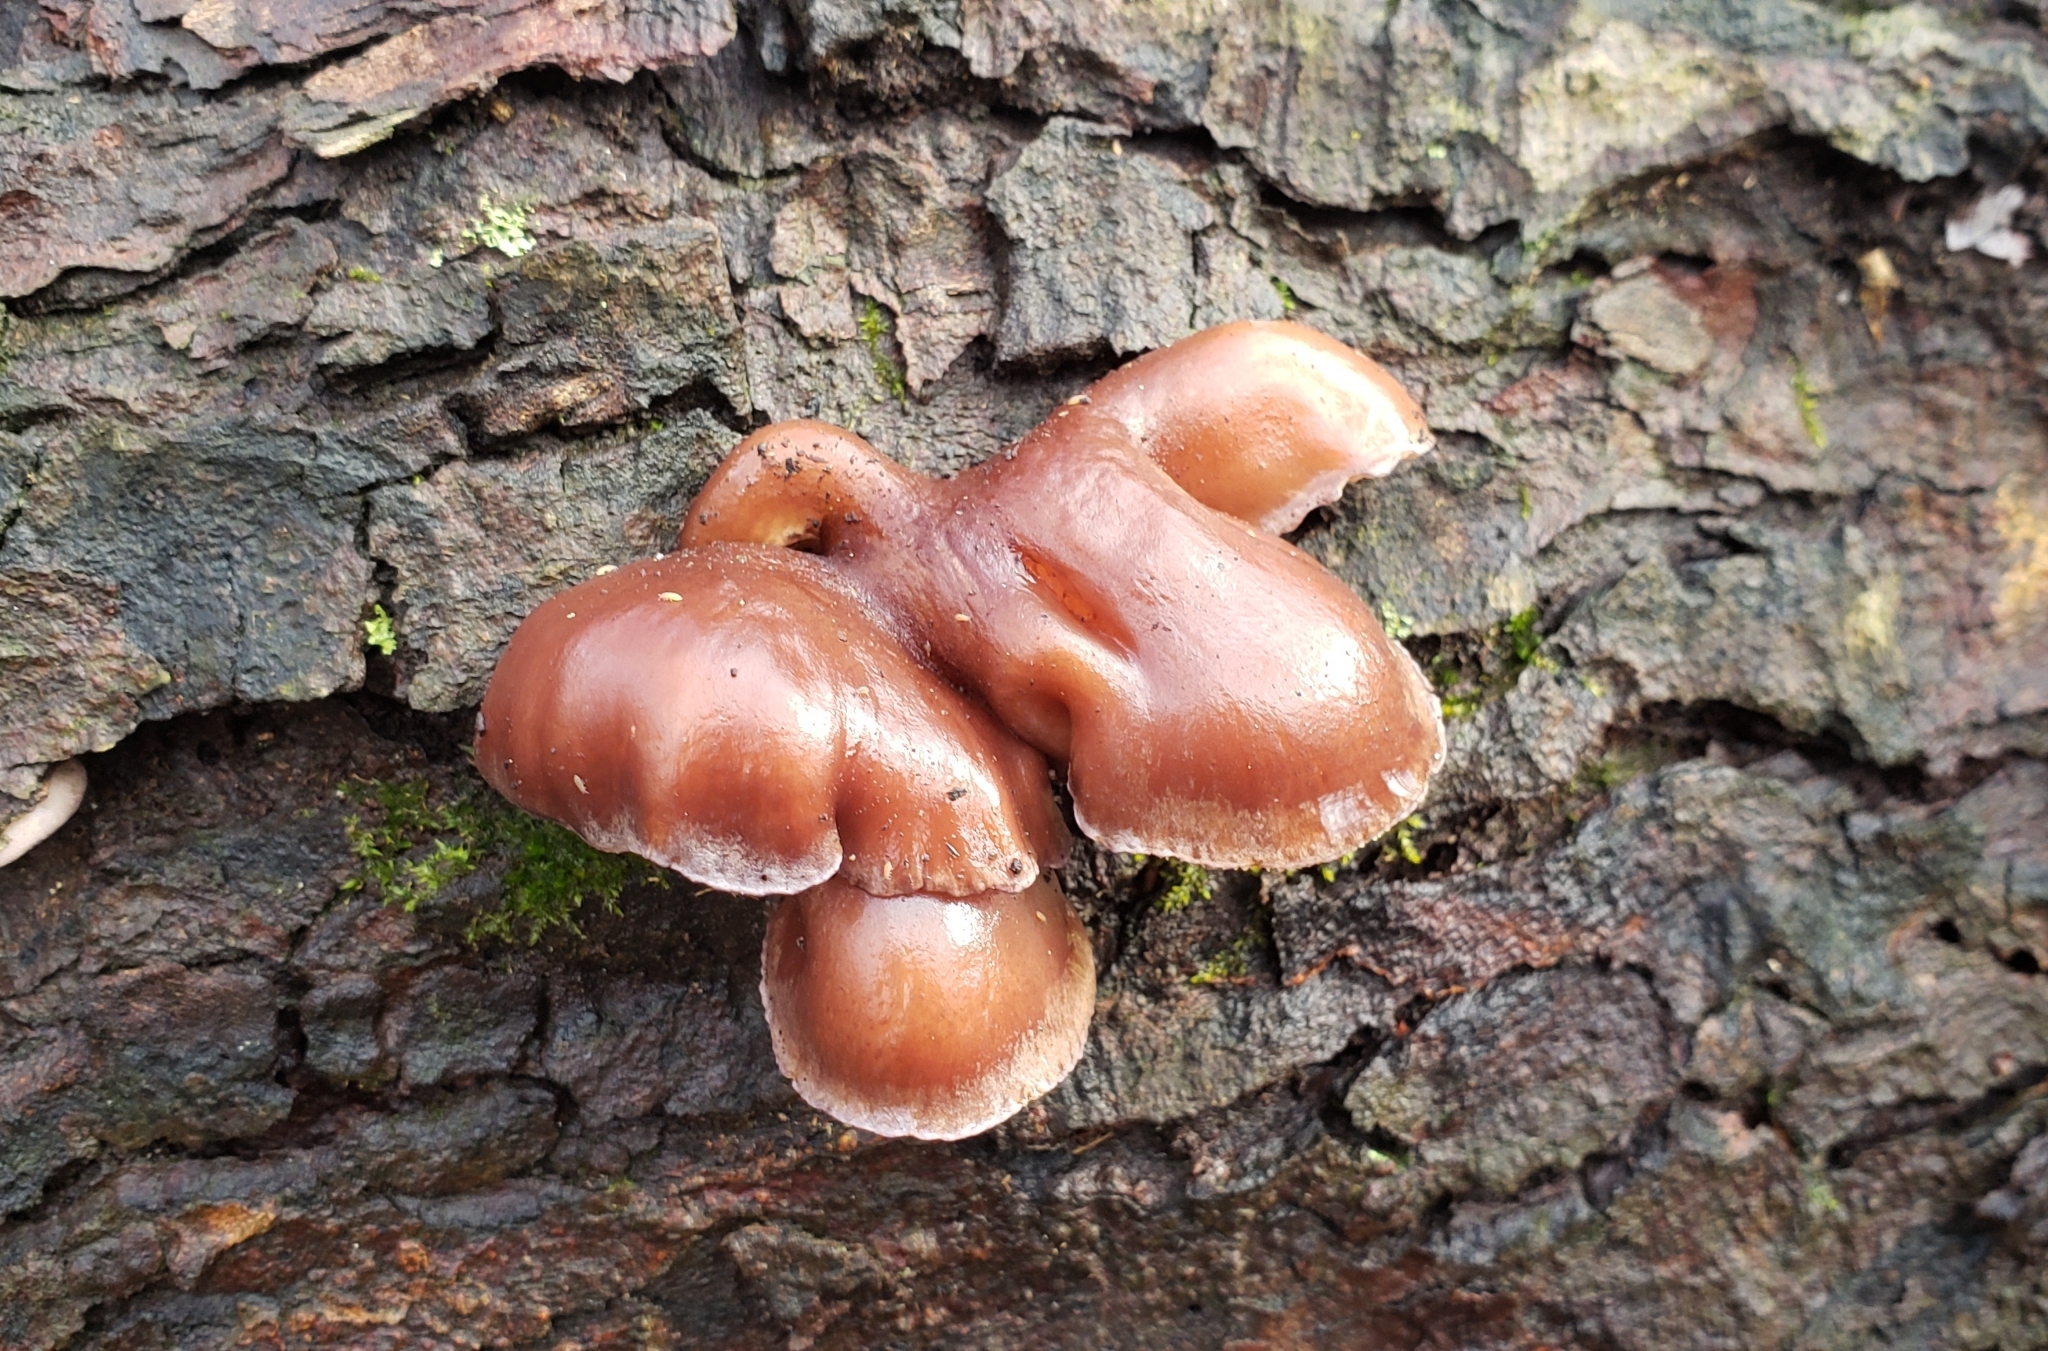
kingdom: Fungi
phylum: Basidiomycota
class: Agaricomycetes
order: Agaricales
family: Sarcomyxaceae
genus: Sarcomyxa
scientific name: Sarcomyxa serotina
